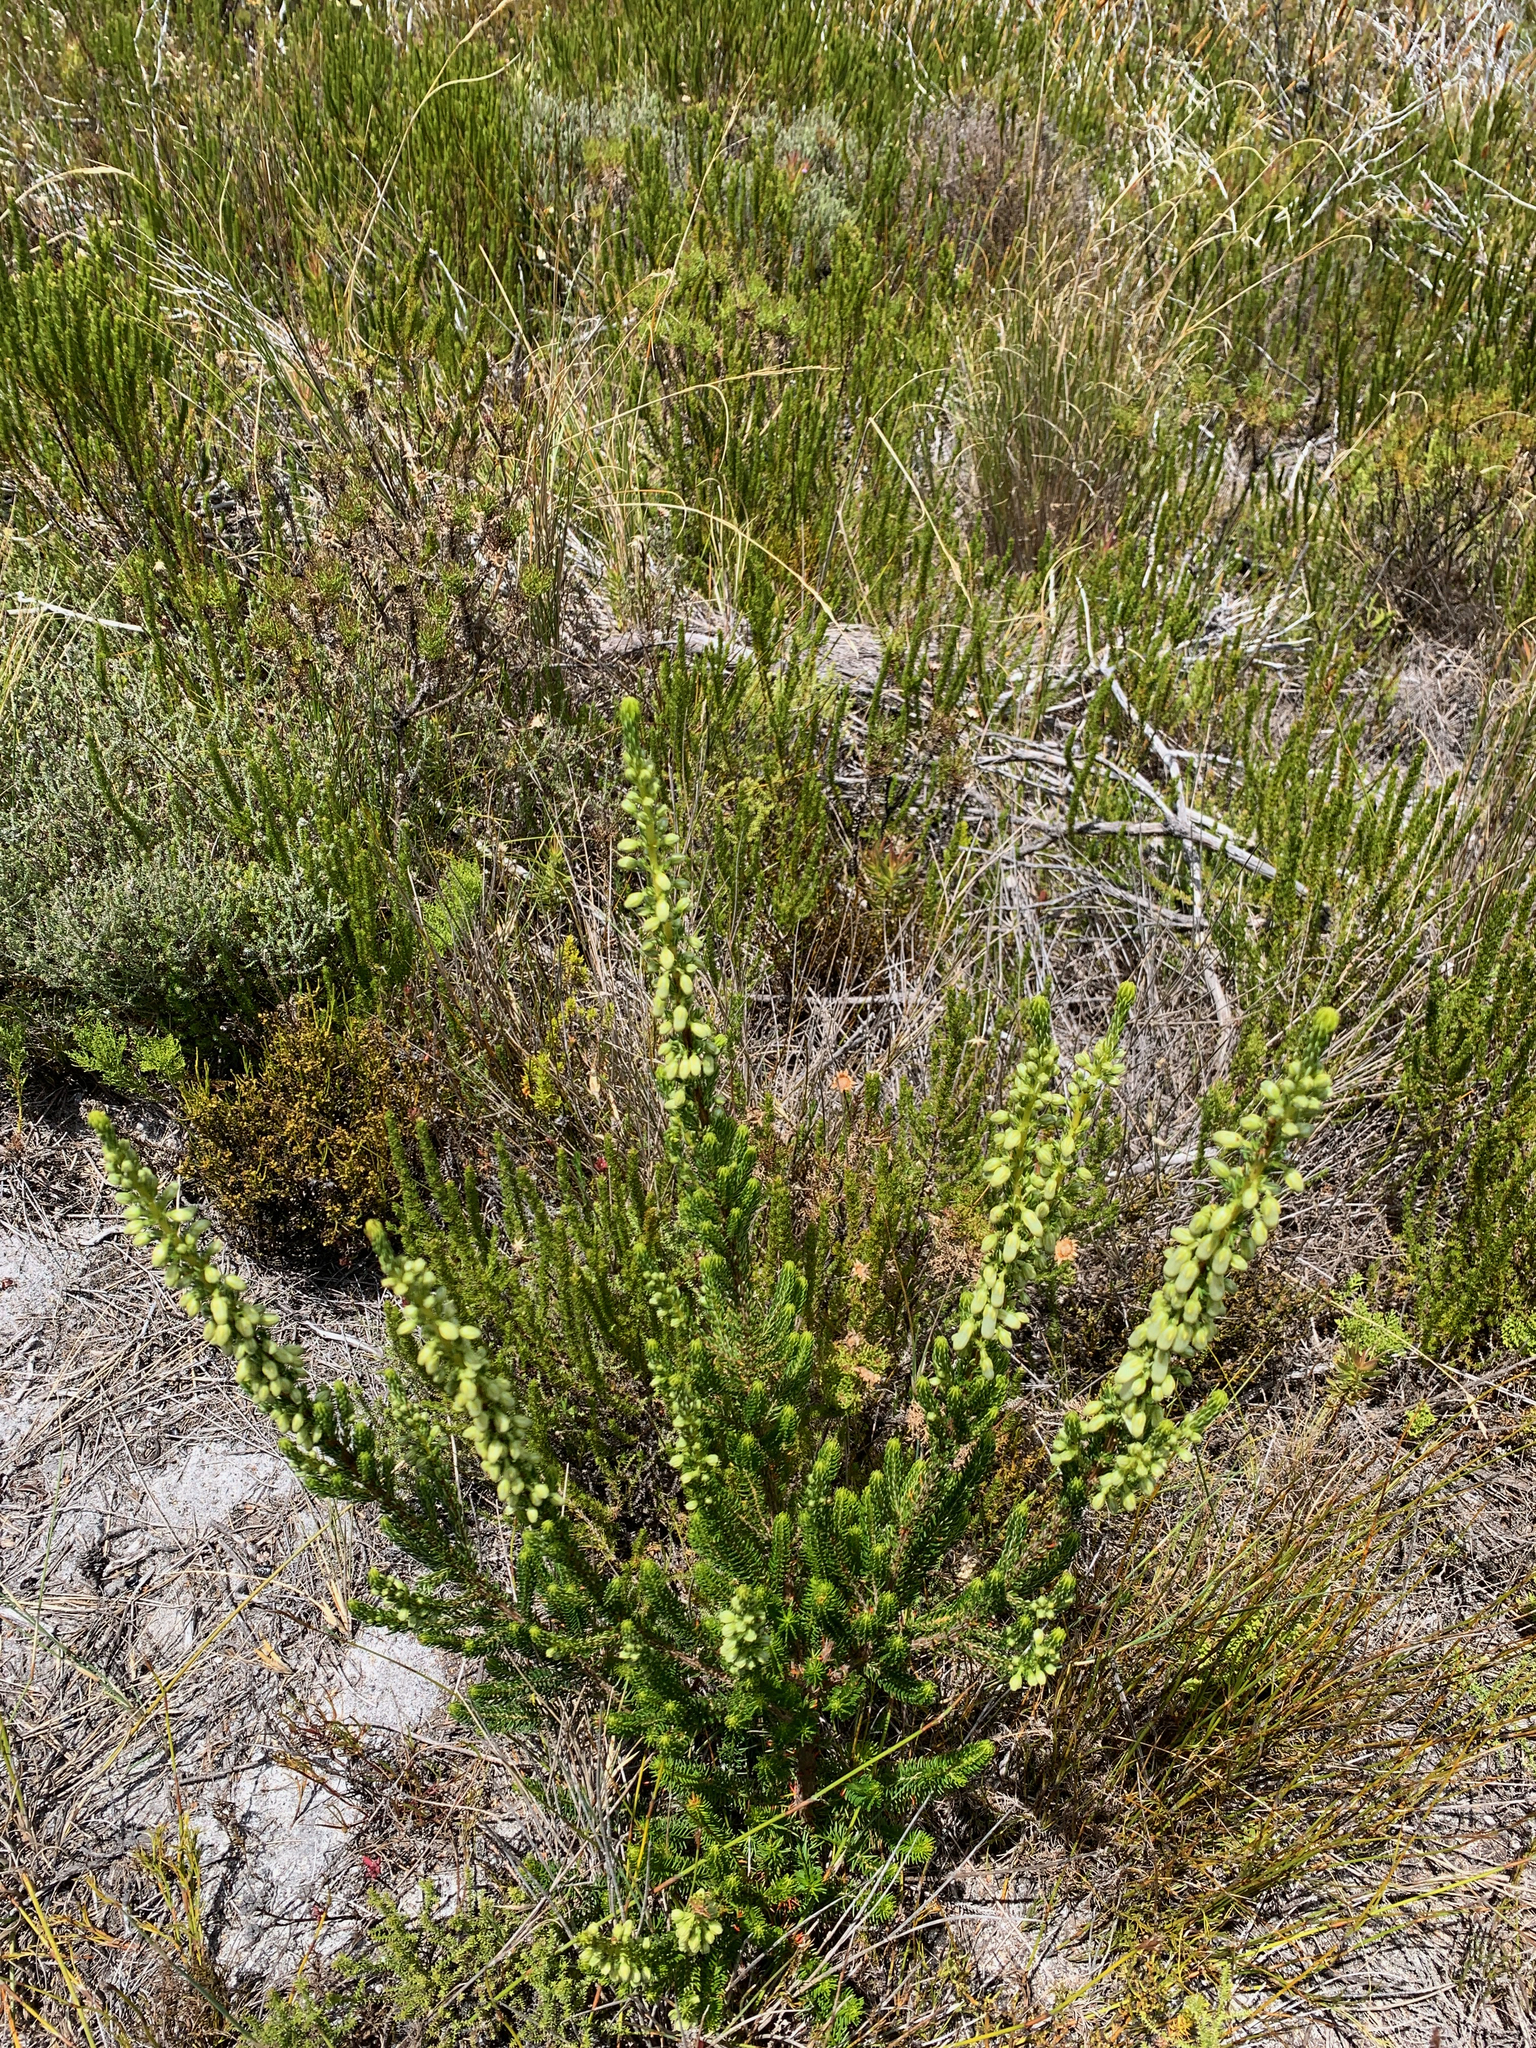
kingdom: Plantae
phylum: Tracheophyta
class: Magnoliopsida
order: Ericales
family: Ericaceae
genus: Erica
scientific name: Erica mammosa
